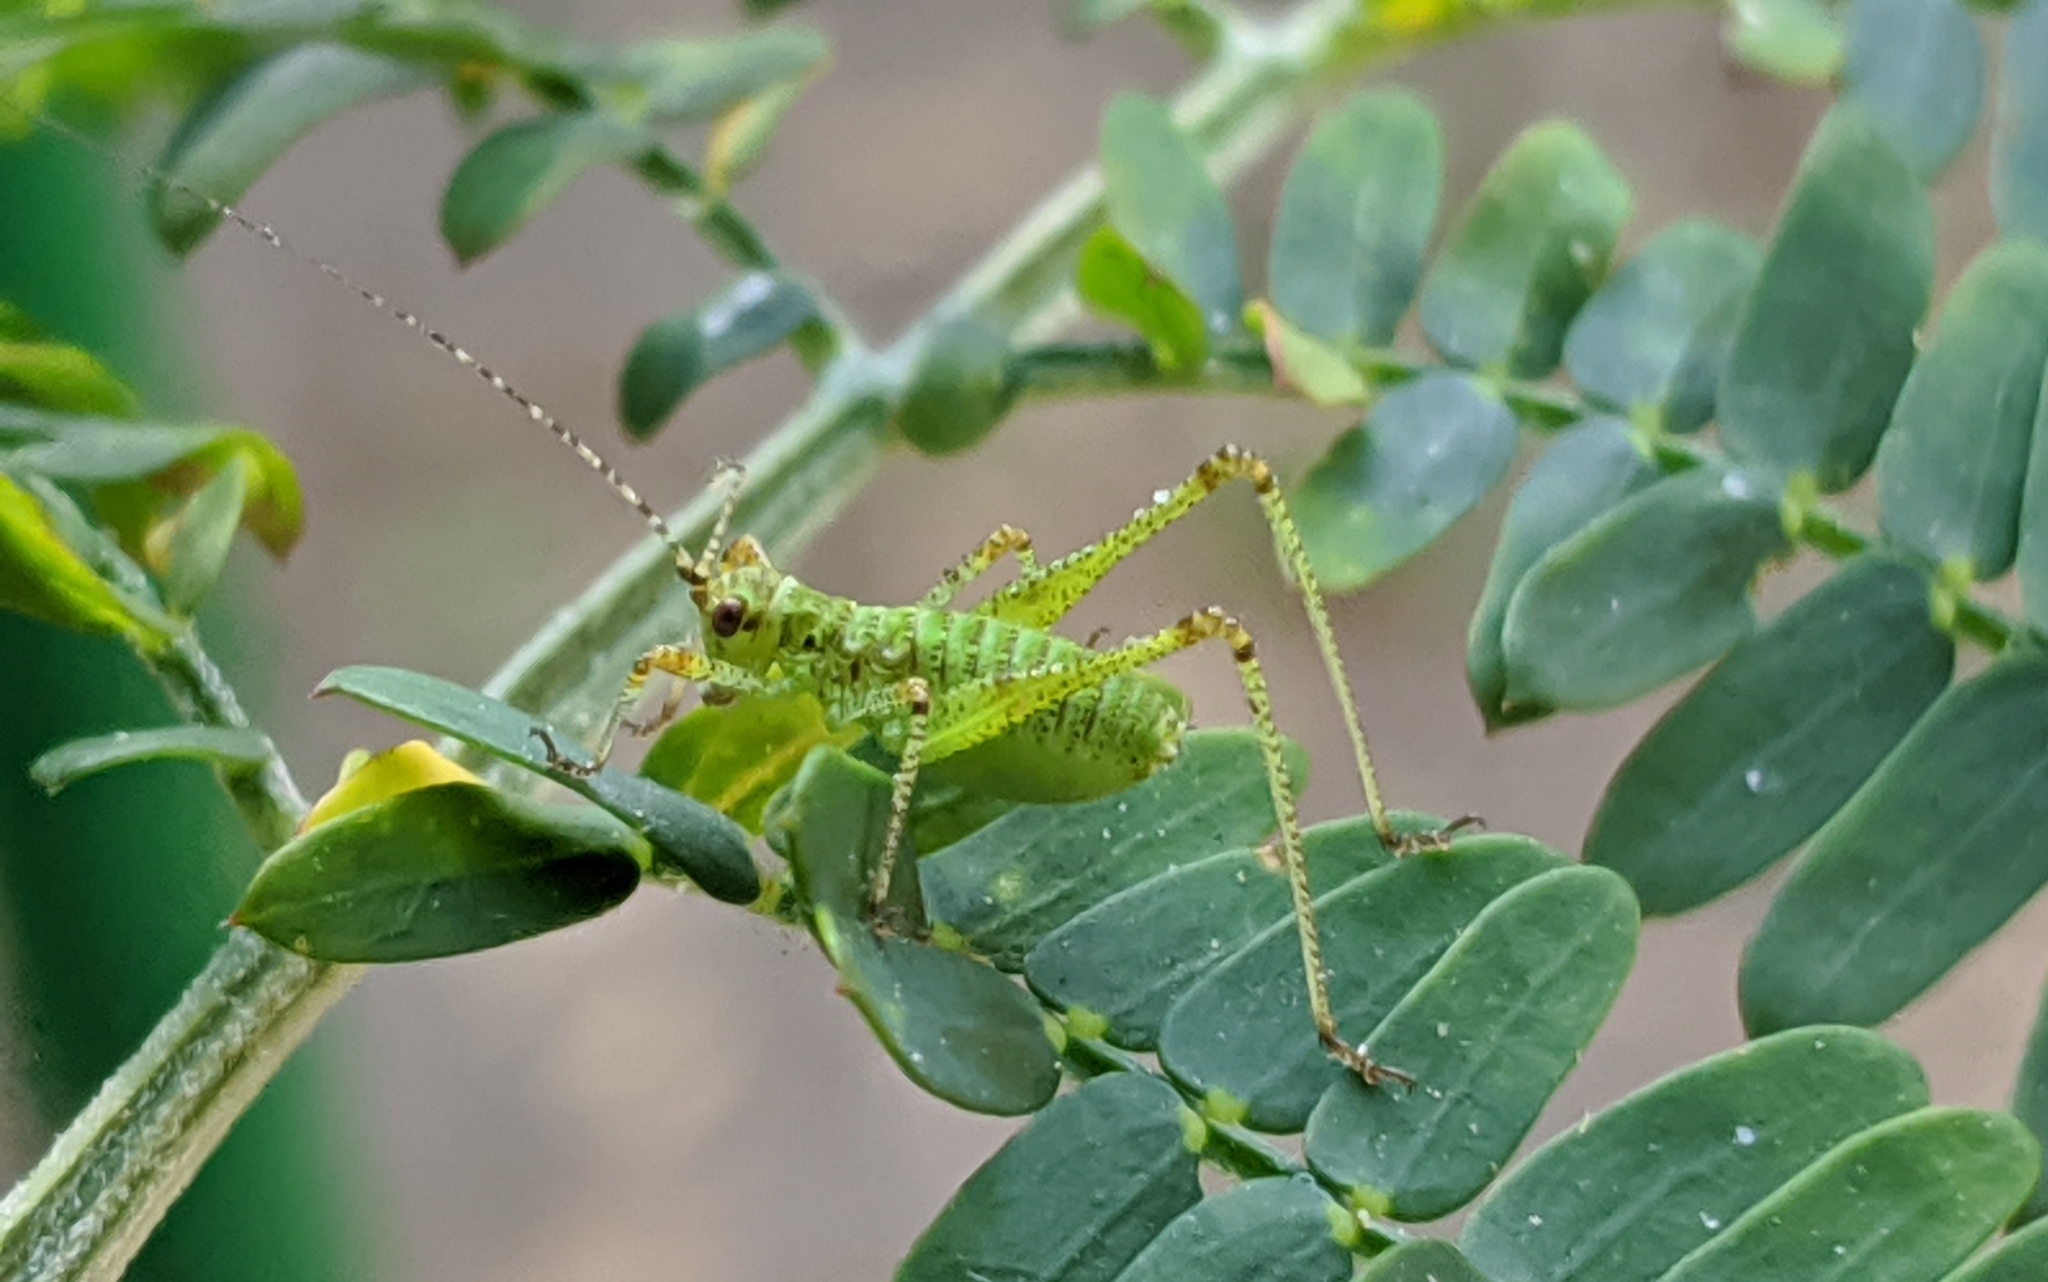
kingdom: Animalia
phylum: Arthropoda
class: Insecta
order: Orthoptera
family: Tettigoniidae
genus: Phaneroptera
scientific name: Phaneroptera nana
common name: Southern sickle bush-cricket
